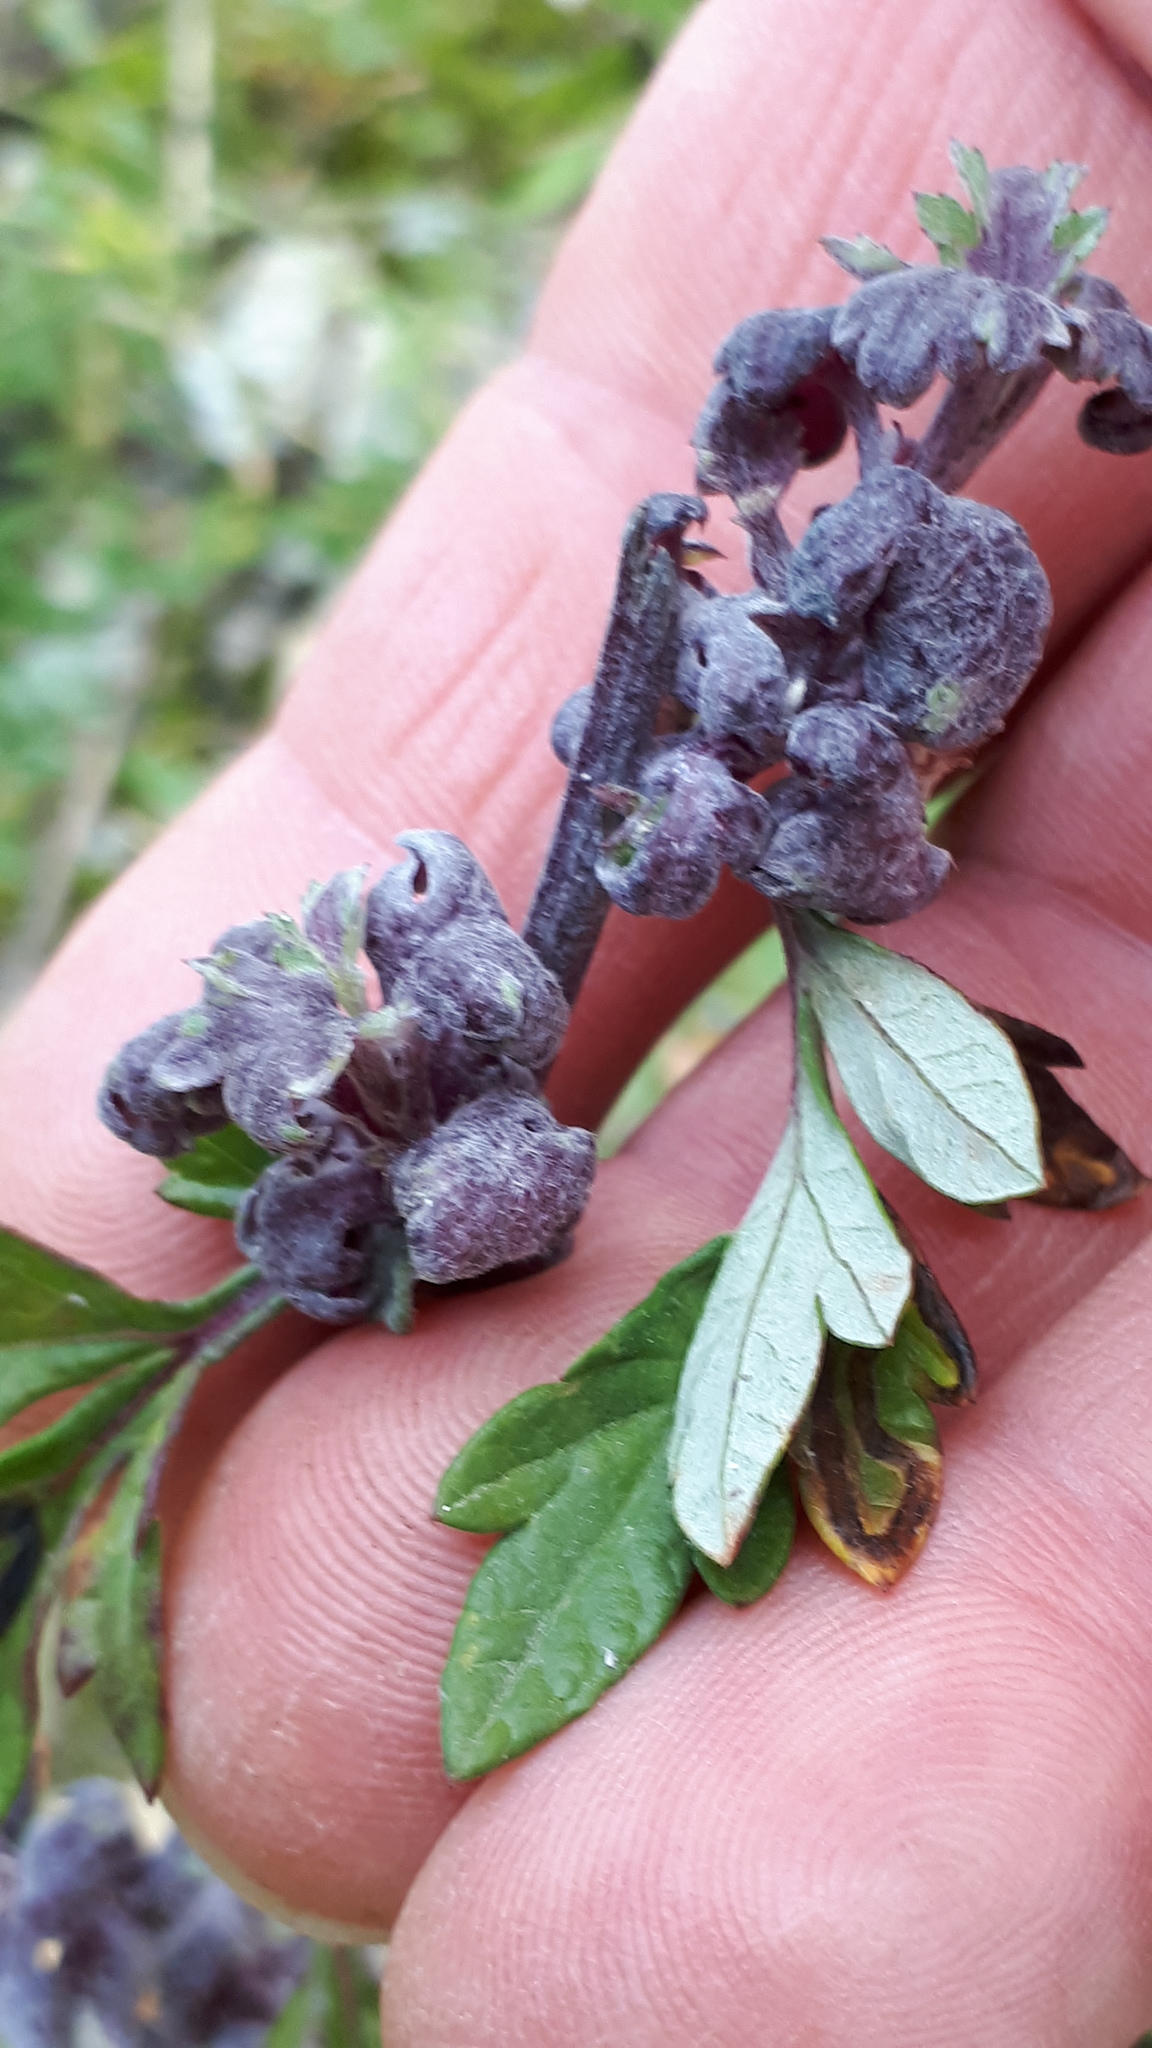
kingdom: Animalia
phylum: Arthropoda
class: Insecta
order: Hemiptera
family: Aphididae
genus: Cryptosiphum
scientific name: Cryptosiphum artemisiae
